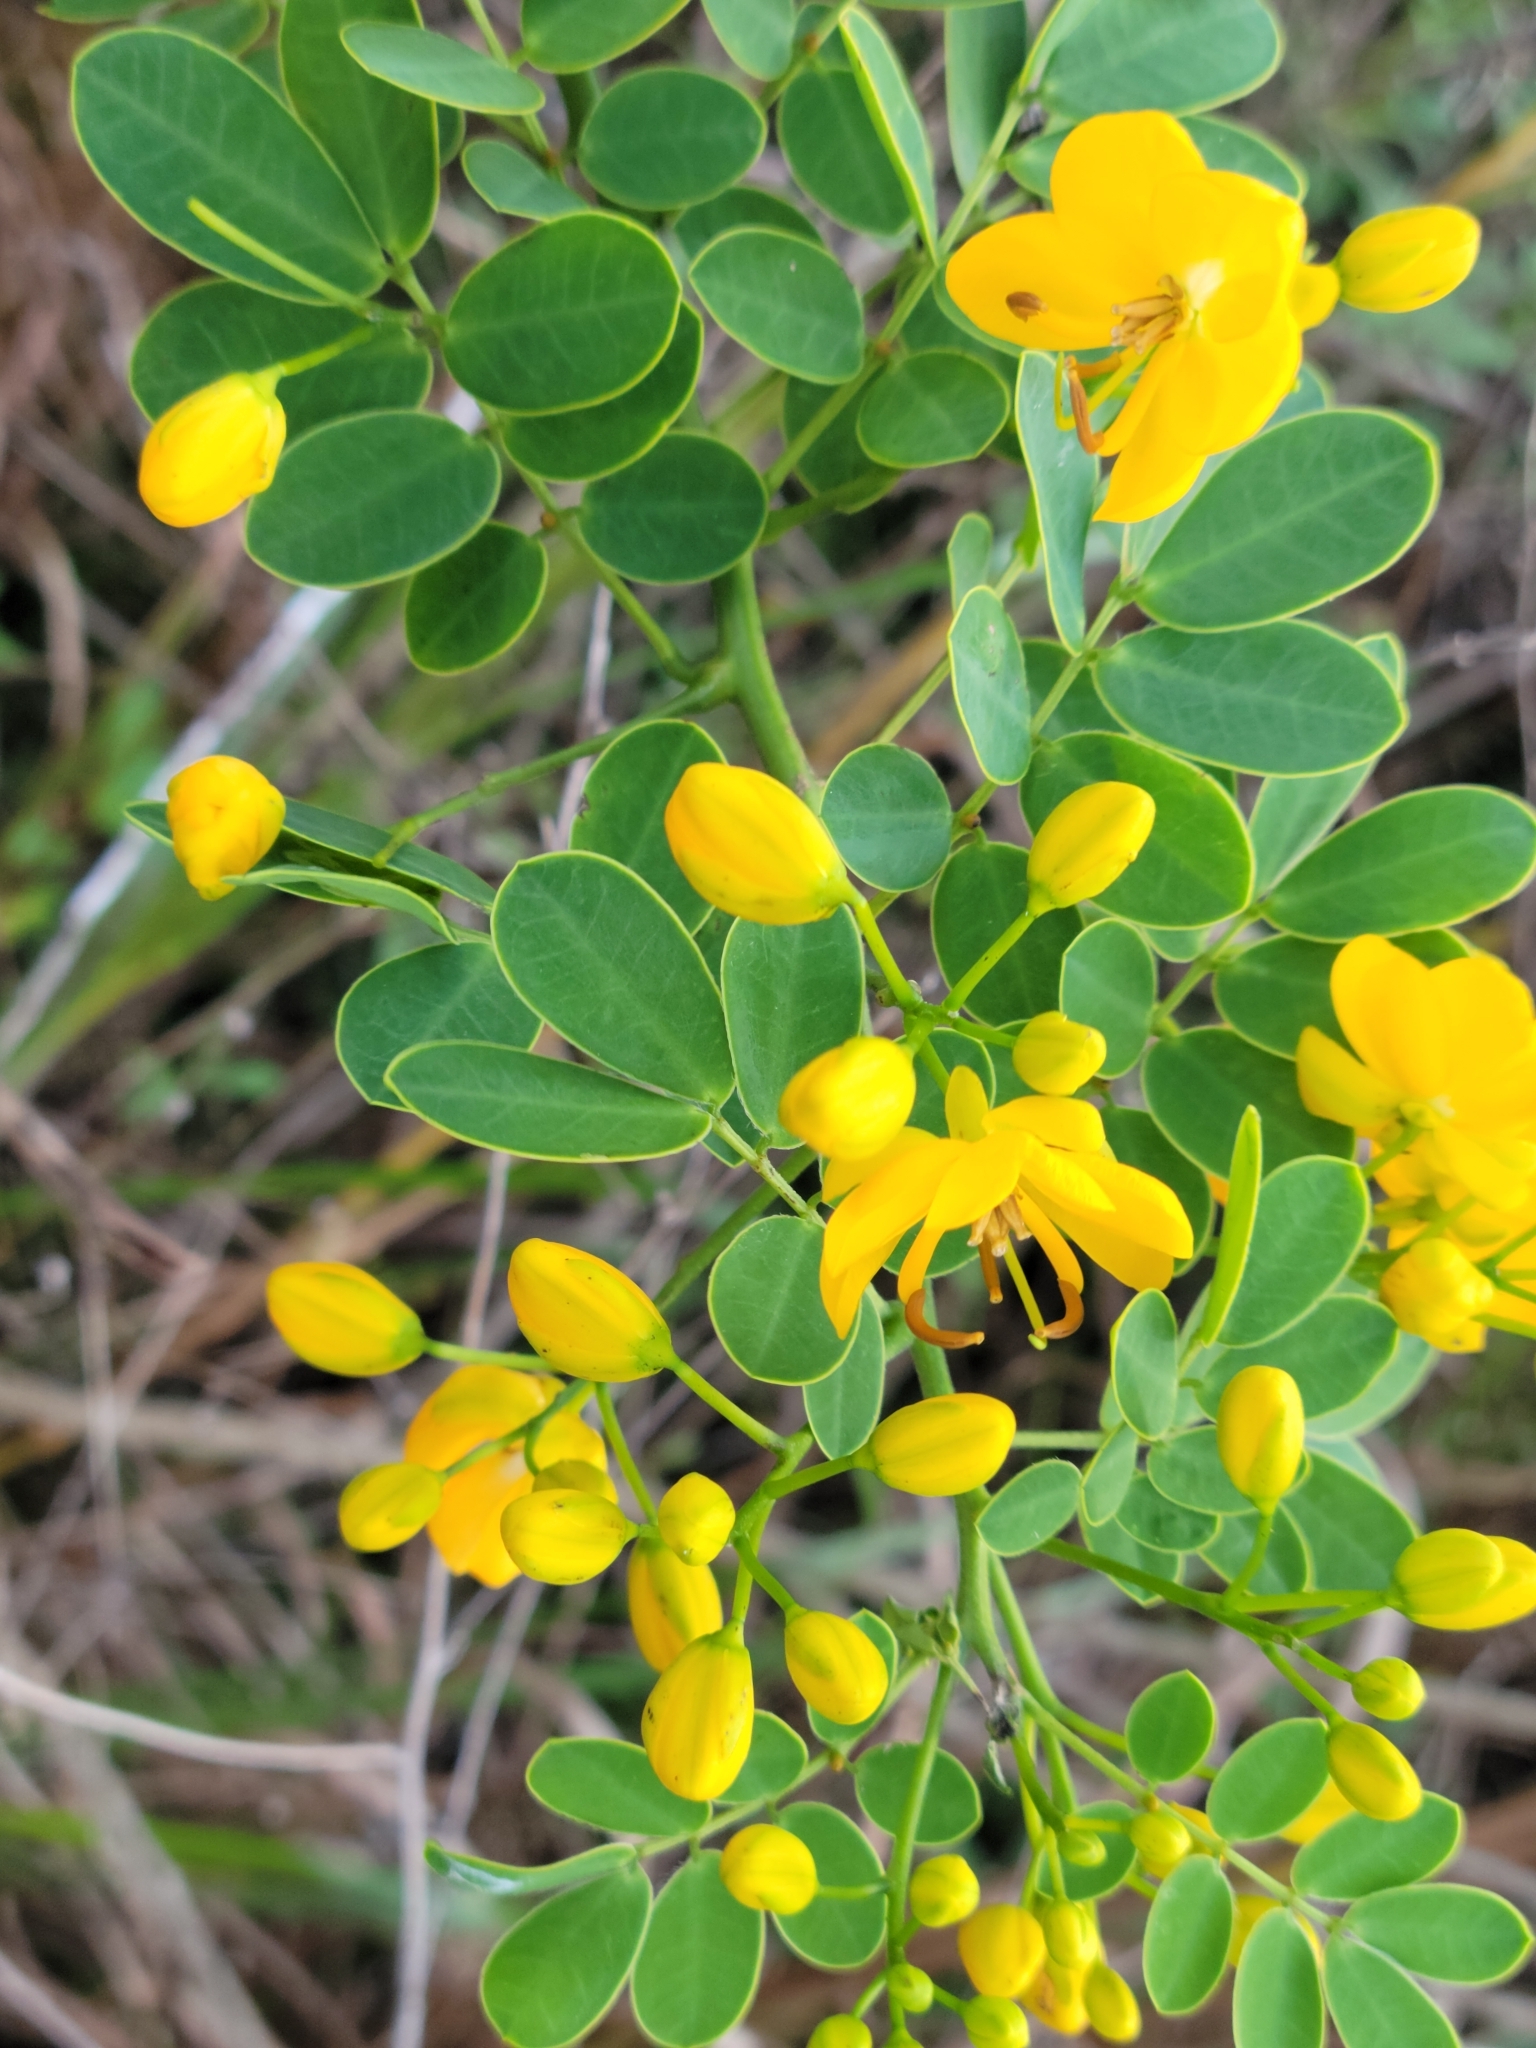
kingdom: Plantae
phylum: Tracheophyta
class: Magnoliopsida
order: Fabales
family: Fabaceae
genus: Senna
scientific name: Senna pendula
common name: Easter cassia
